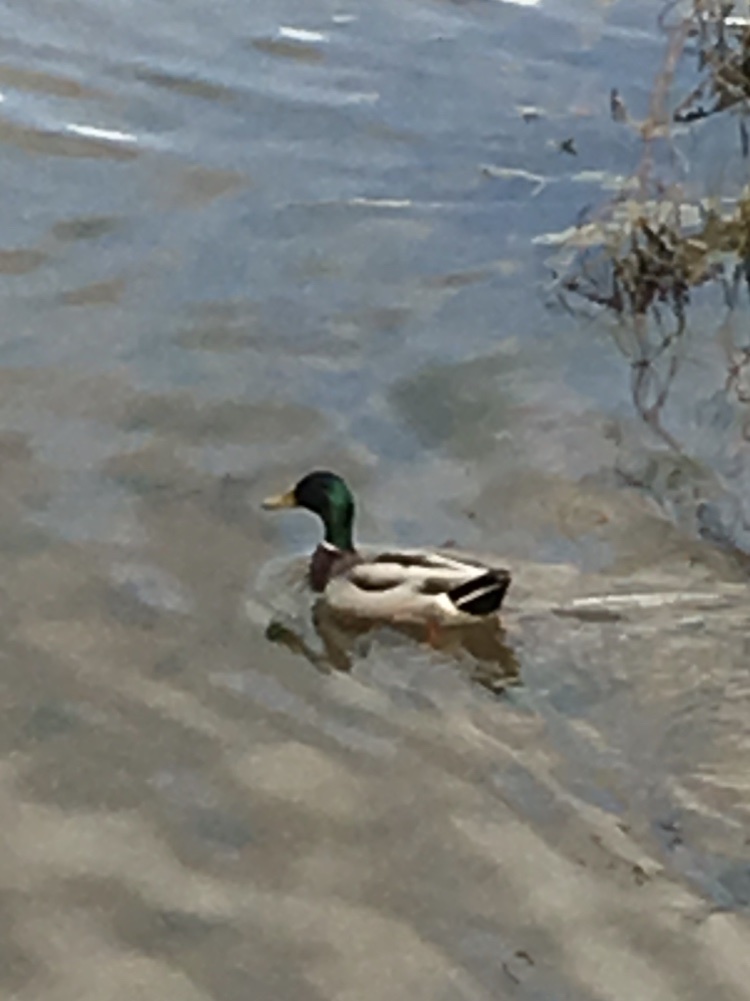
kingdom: Animalia
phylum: Chordata
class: Aves
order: Anseriformes
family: Anatidae
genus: Anas
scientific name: Anas platyrhynchos
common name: Mallard
